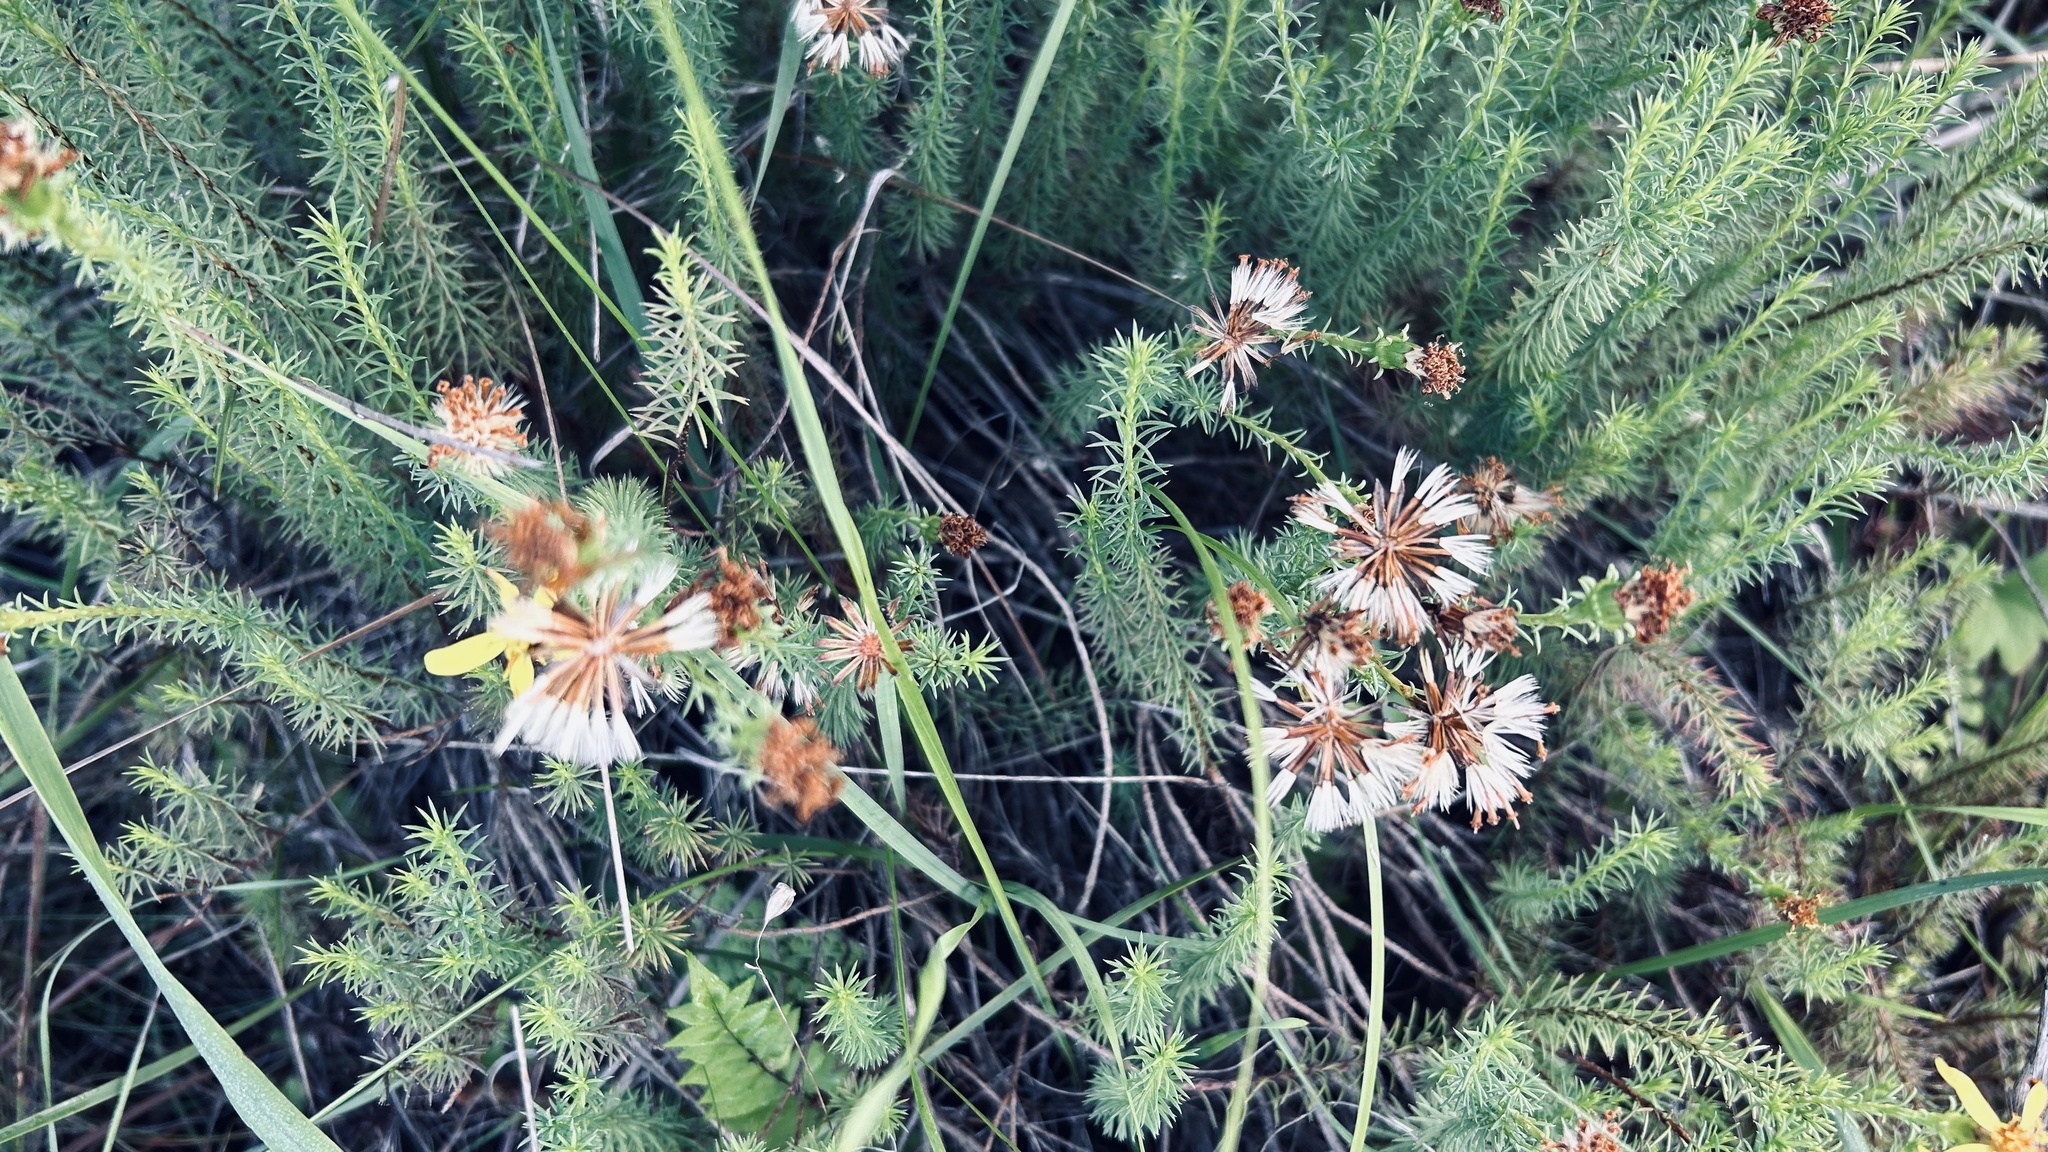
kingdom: Plantae
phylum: Tracheophyta
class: Magnoliopsida
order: Asterales
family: Asteraceae
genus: Senecio
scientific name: Senecio pinifolius
